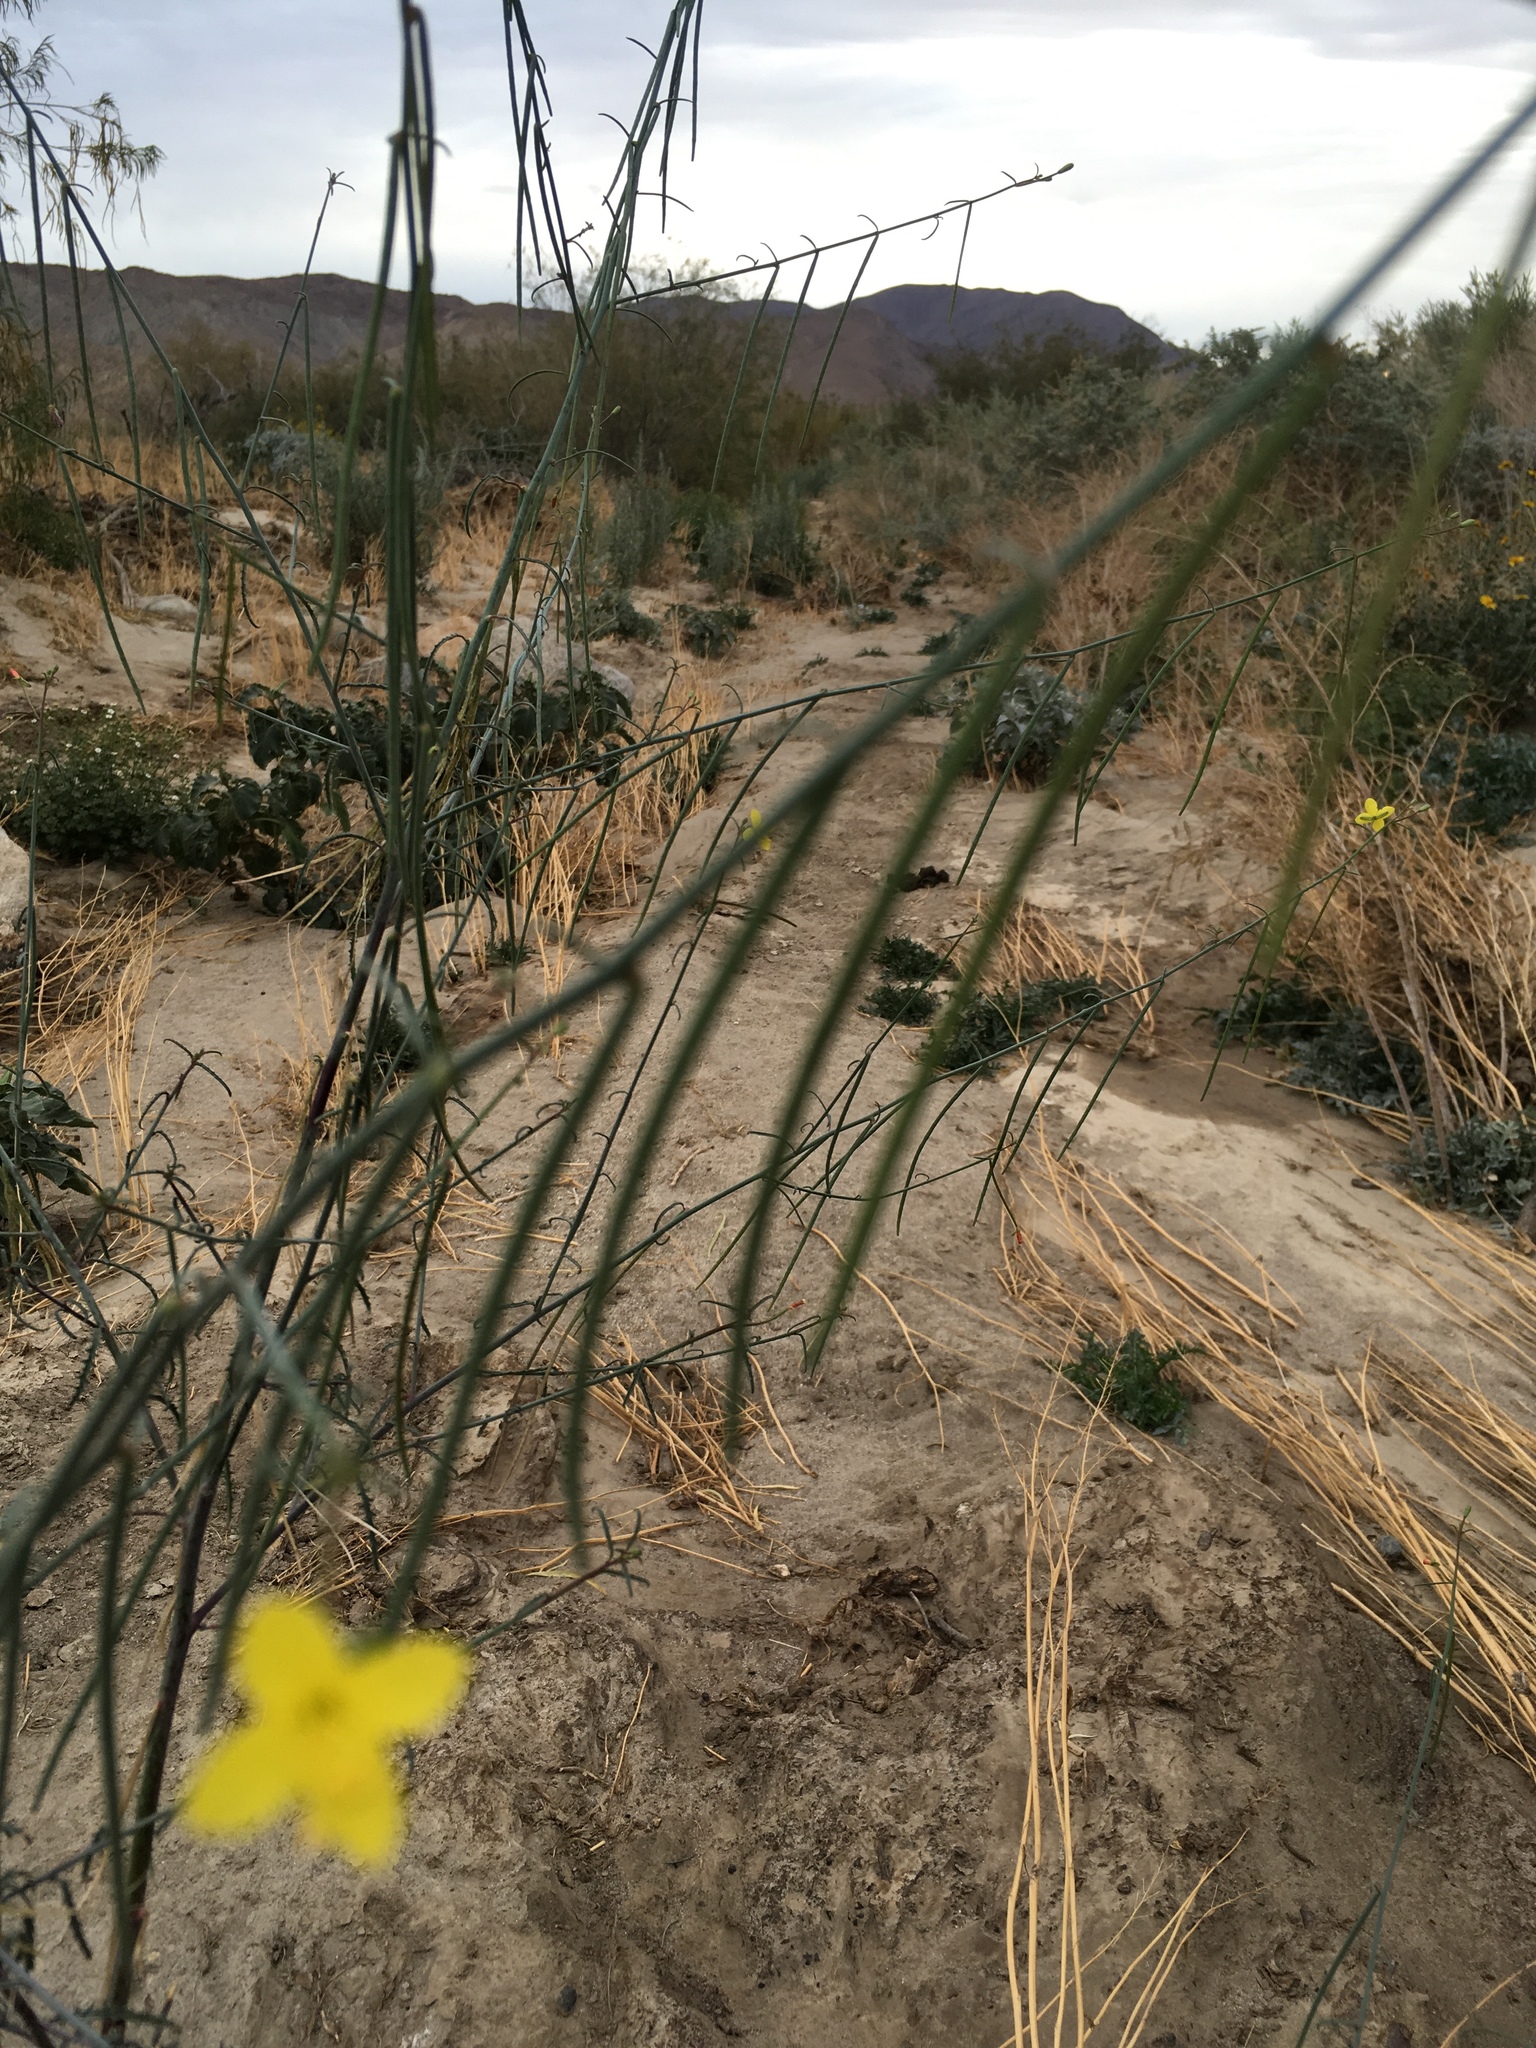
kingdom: Plantae
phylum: Tracheophyta
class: Magnoliopsida
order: Myrtales
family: Onagraceae
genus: Eulobus
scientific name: Eulobus californicus
